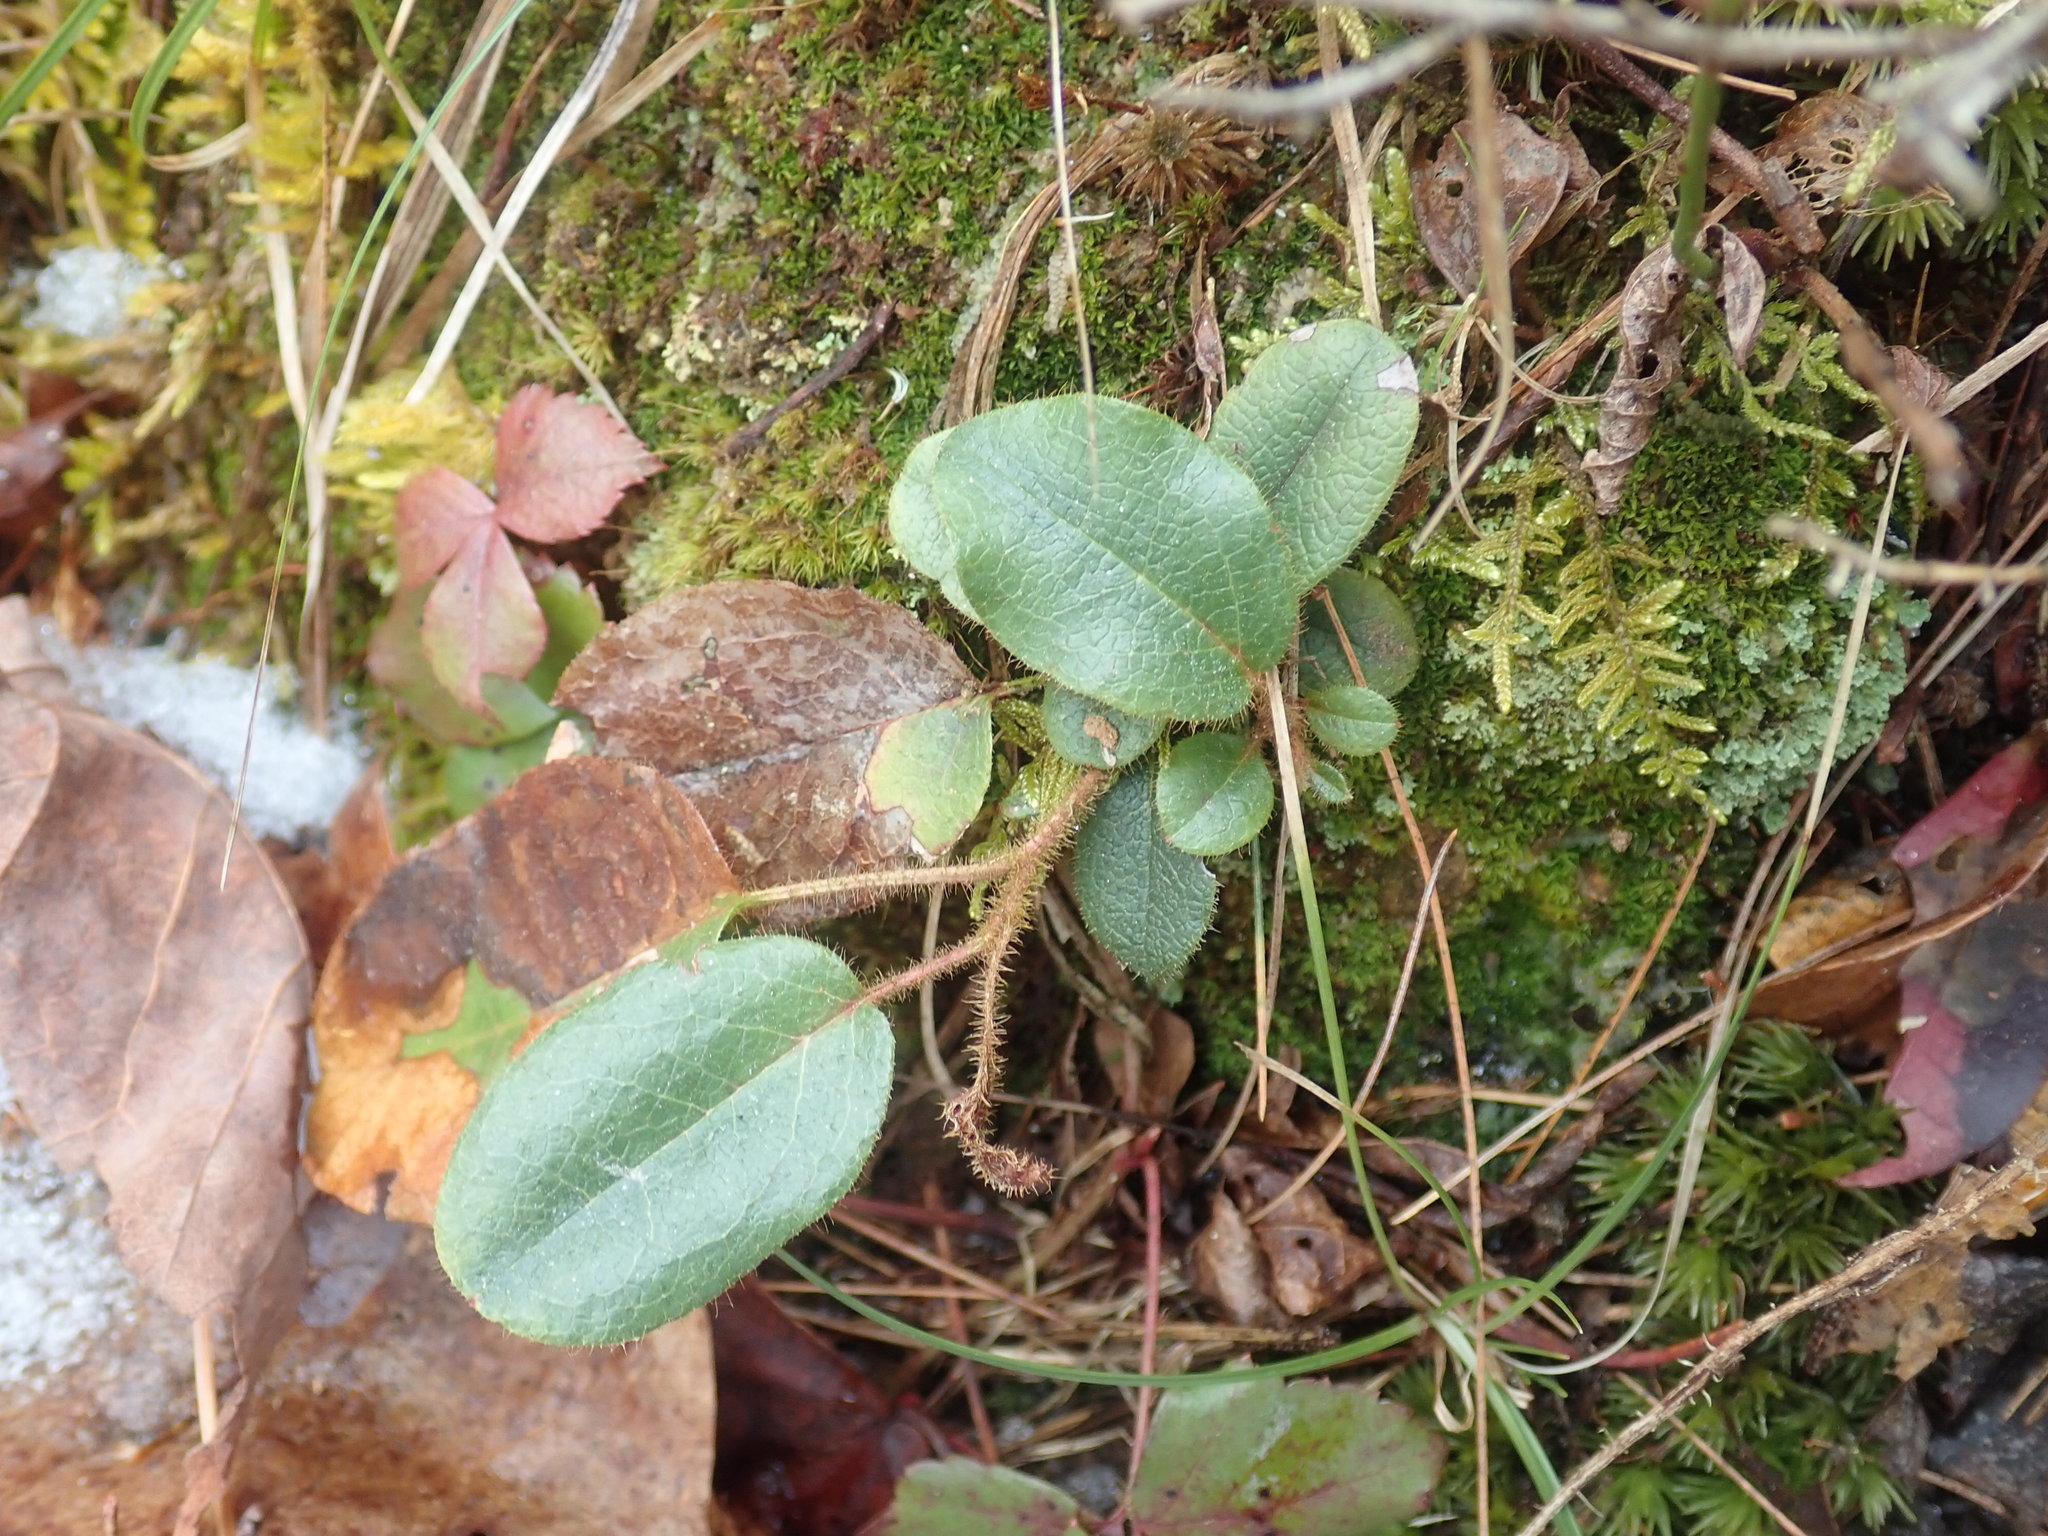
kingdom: Plantae
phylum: Tracheophyta
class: Magnoliopsida
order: Ericales
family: Ericaceae
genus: Epigaea
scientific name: Epigaea repens
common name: Gravelroot
